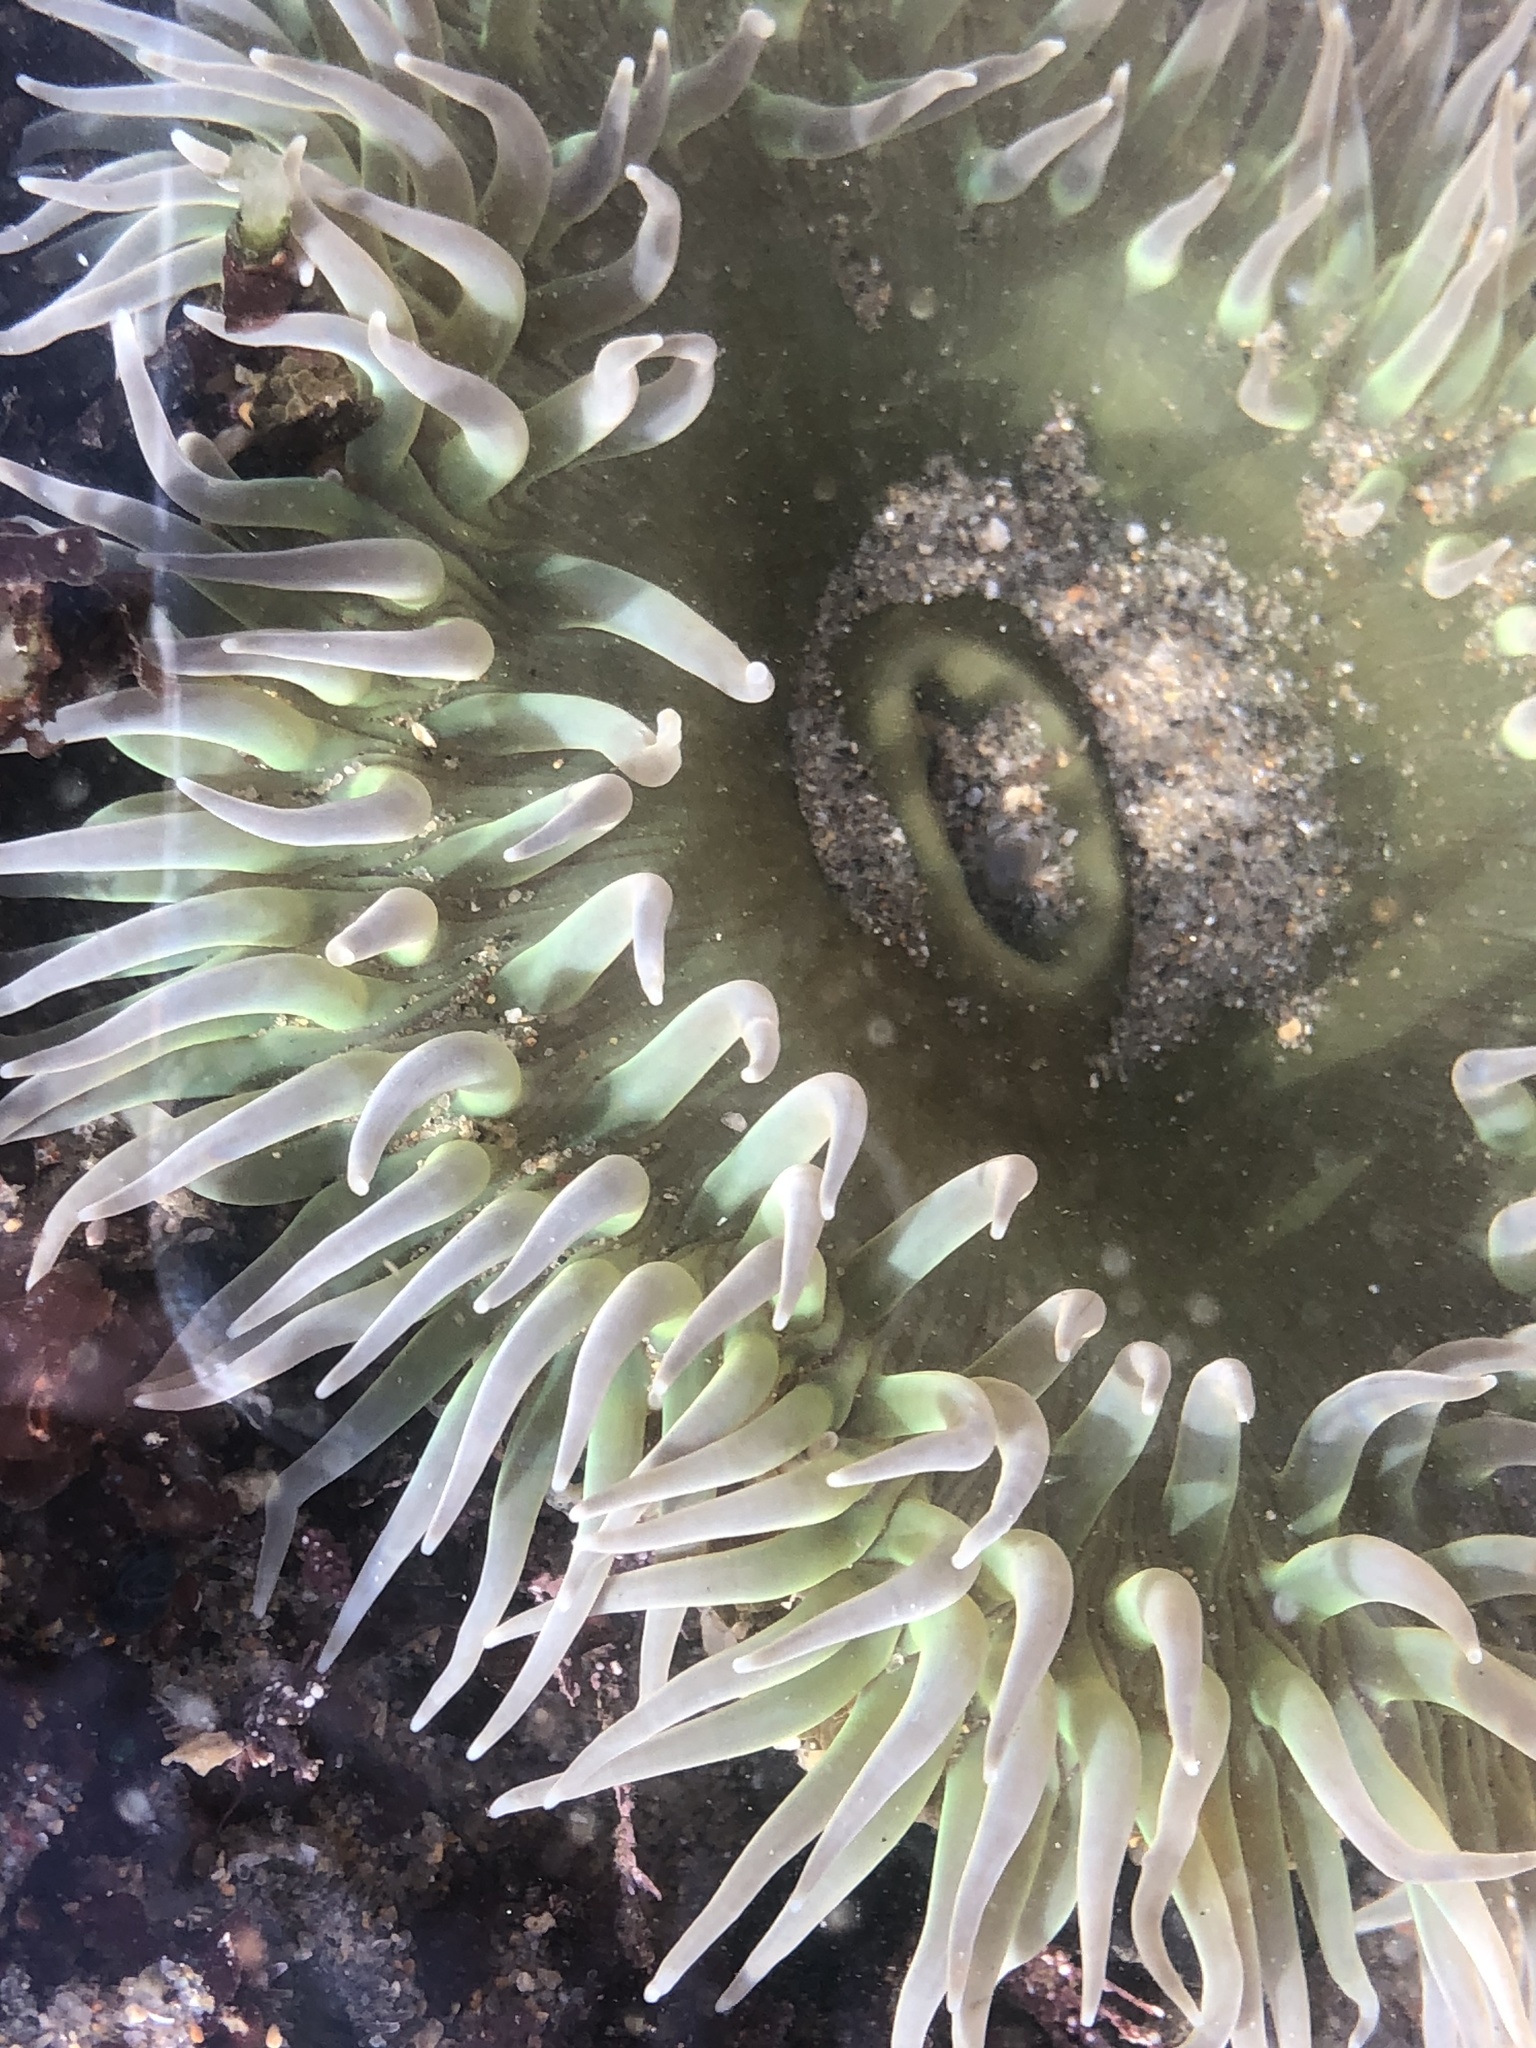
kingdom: Animalia
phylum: Cnidaria
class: Anthozoa
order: Actiniaria
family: Actiniidae
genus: Anthopleura
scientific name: Anthopleura xanthogrammica
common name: Giant green anemone
